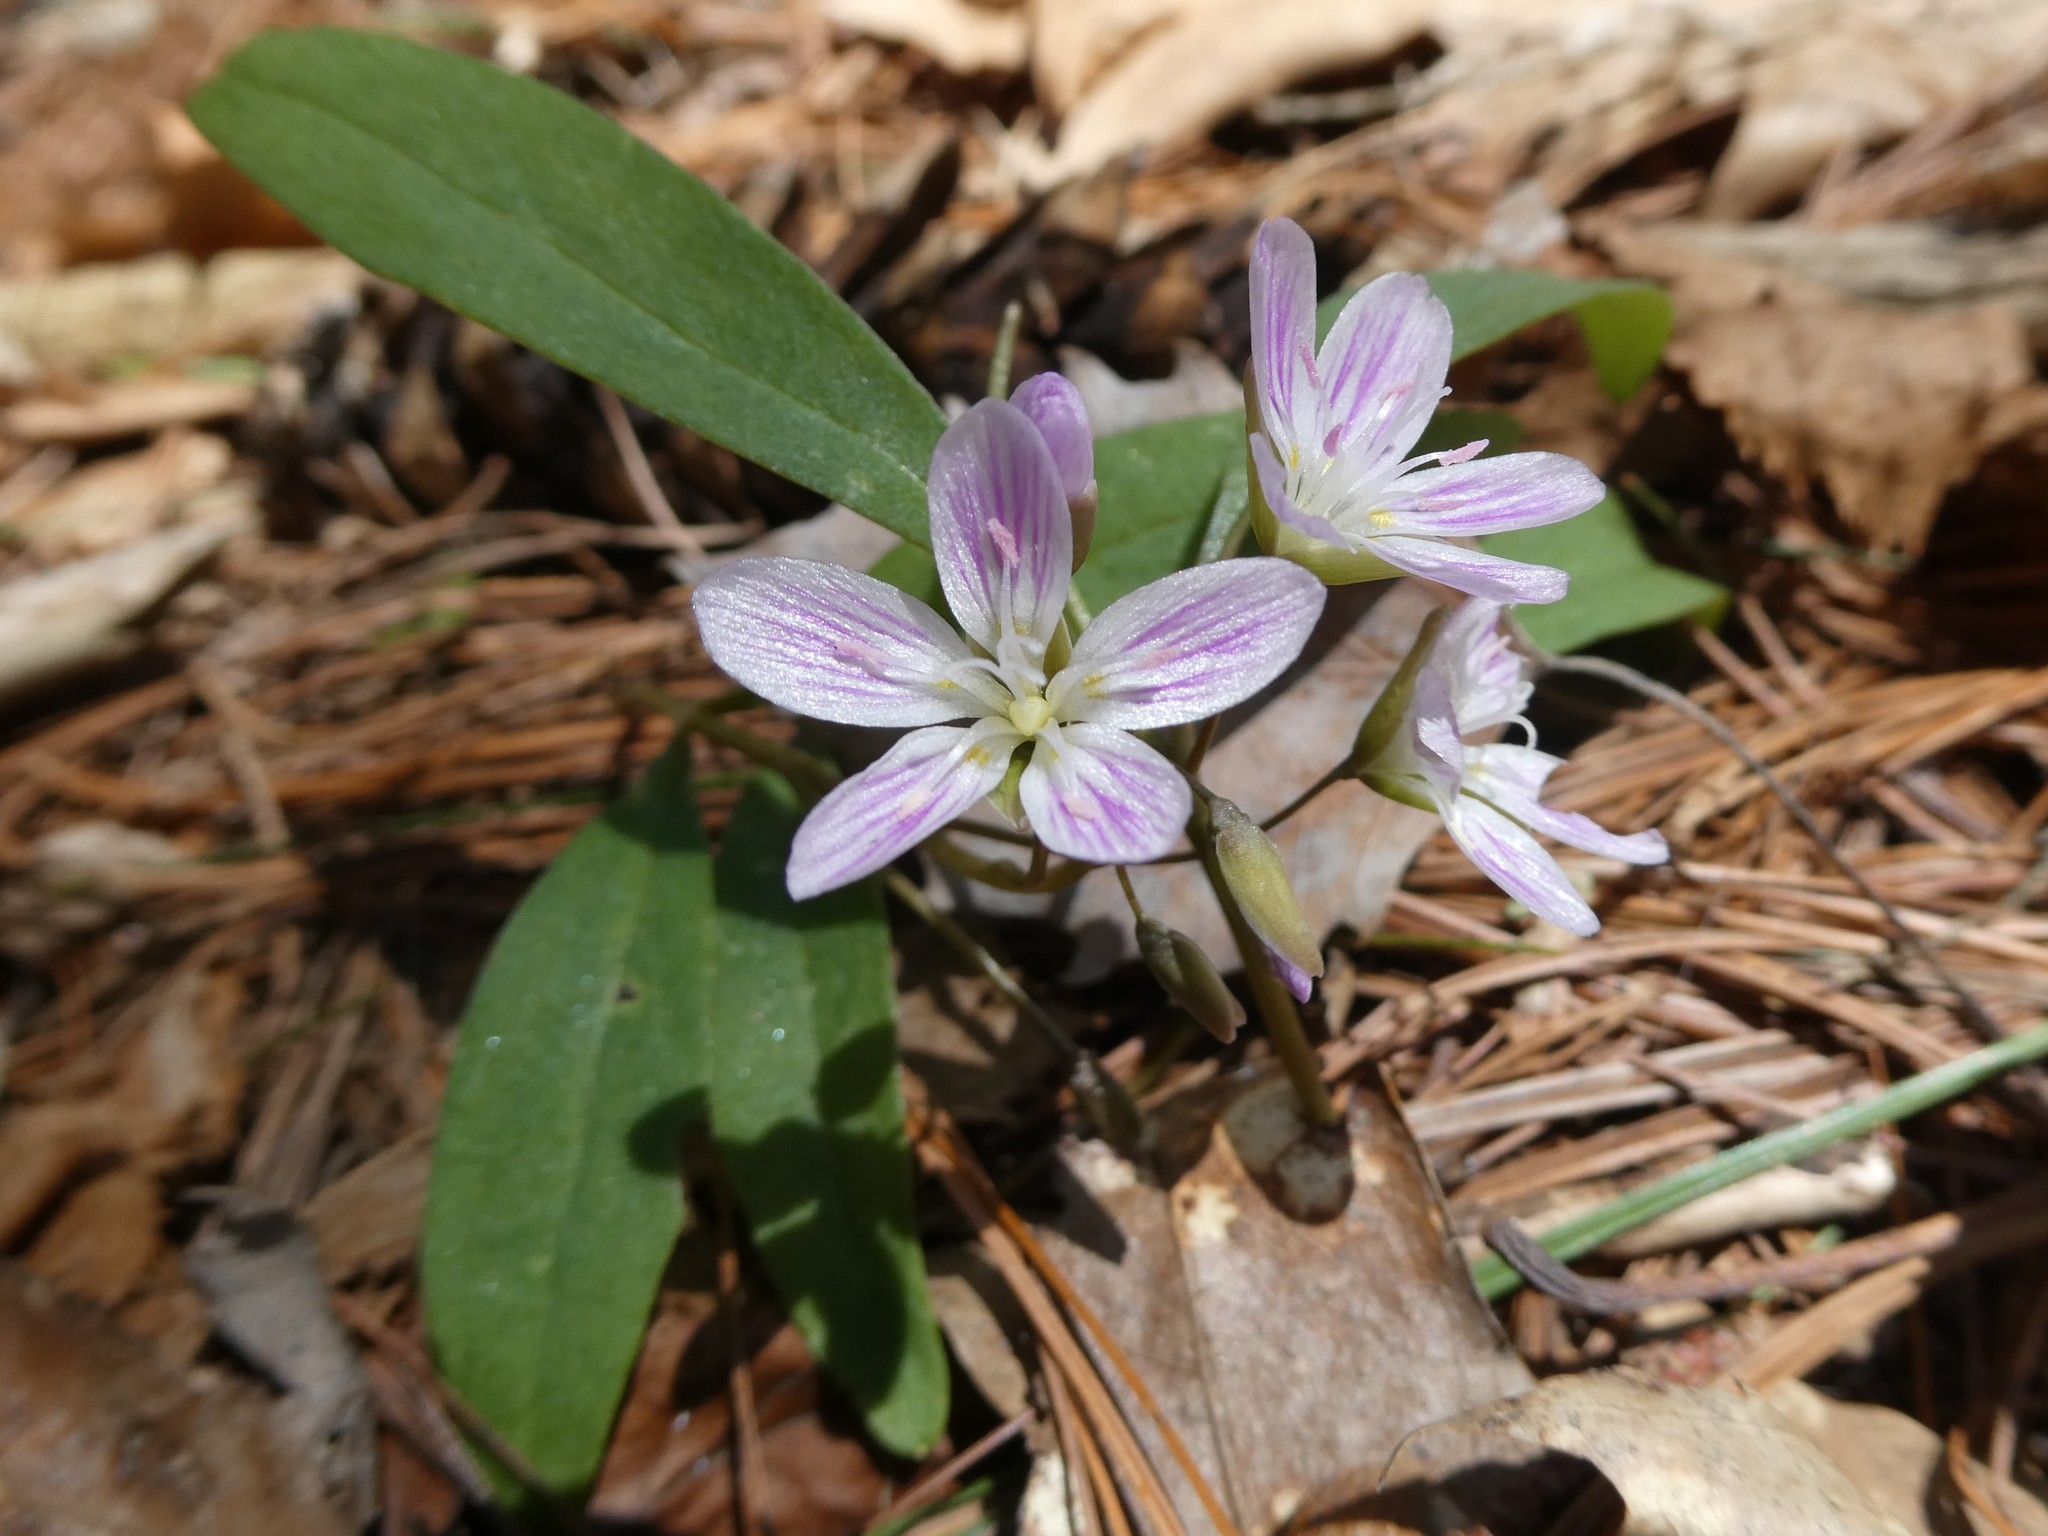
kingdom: Plantae
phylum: Tracheophyta
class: Magnoliopsida
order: Caryophyllales
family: Montiaceae
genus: Claytonia
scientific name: Claytonia caroliniana
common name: Carolina spring beauty
